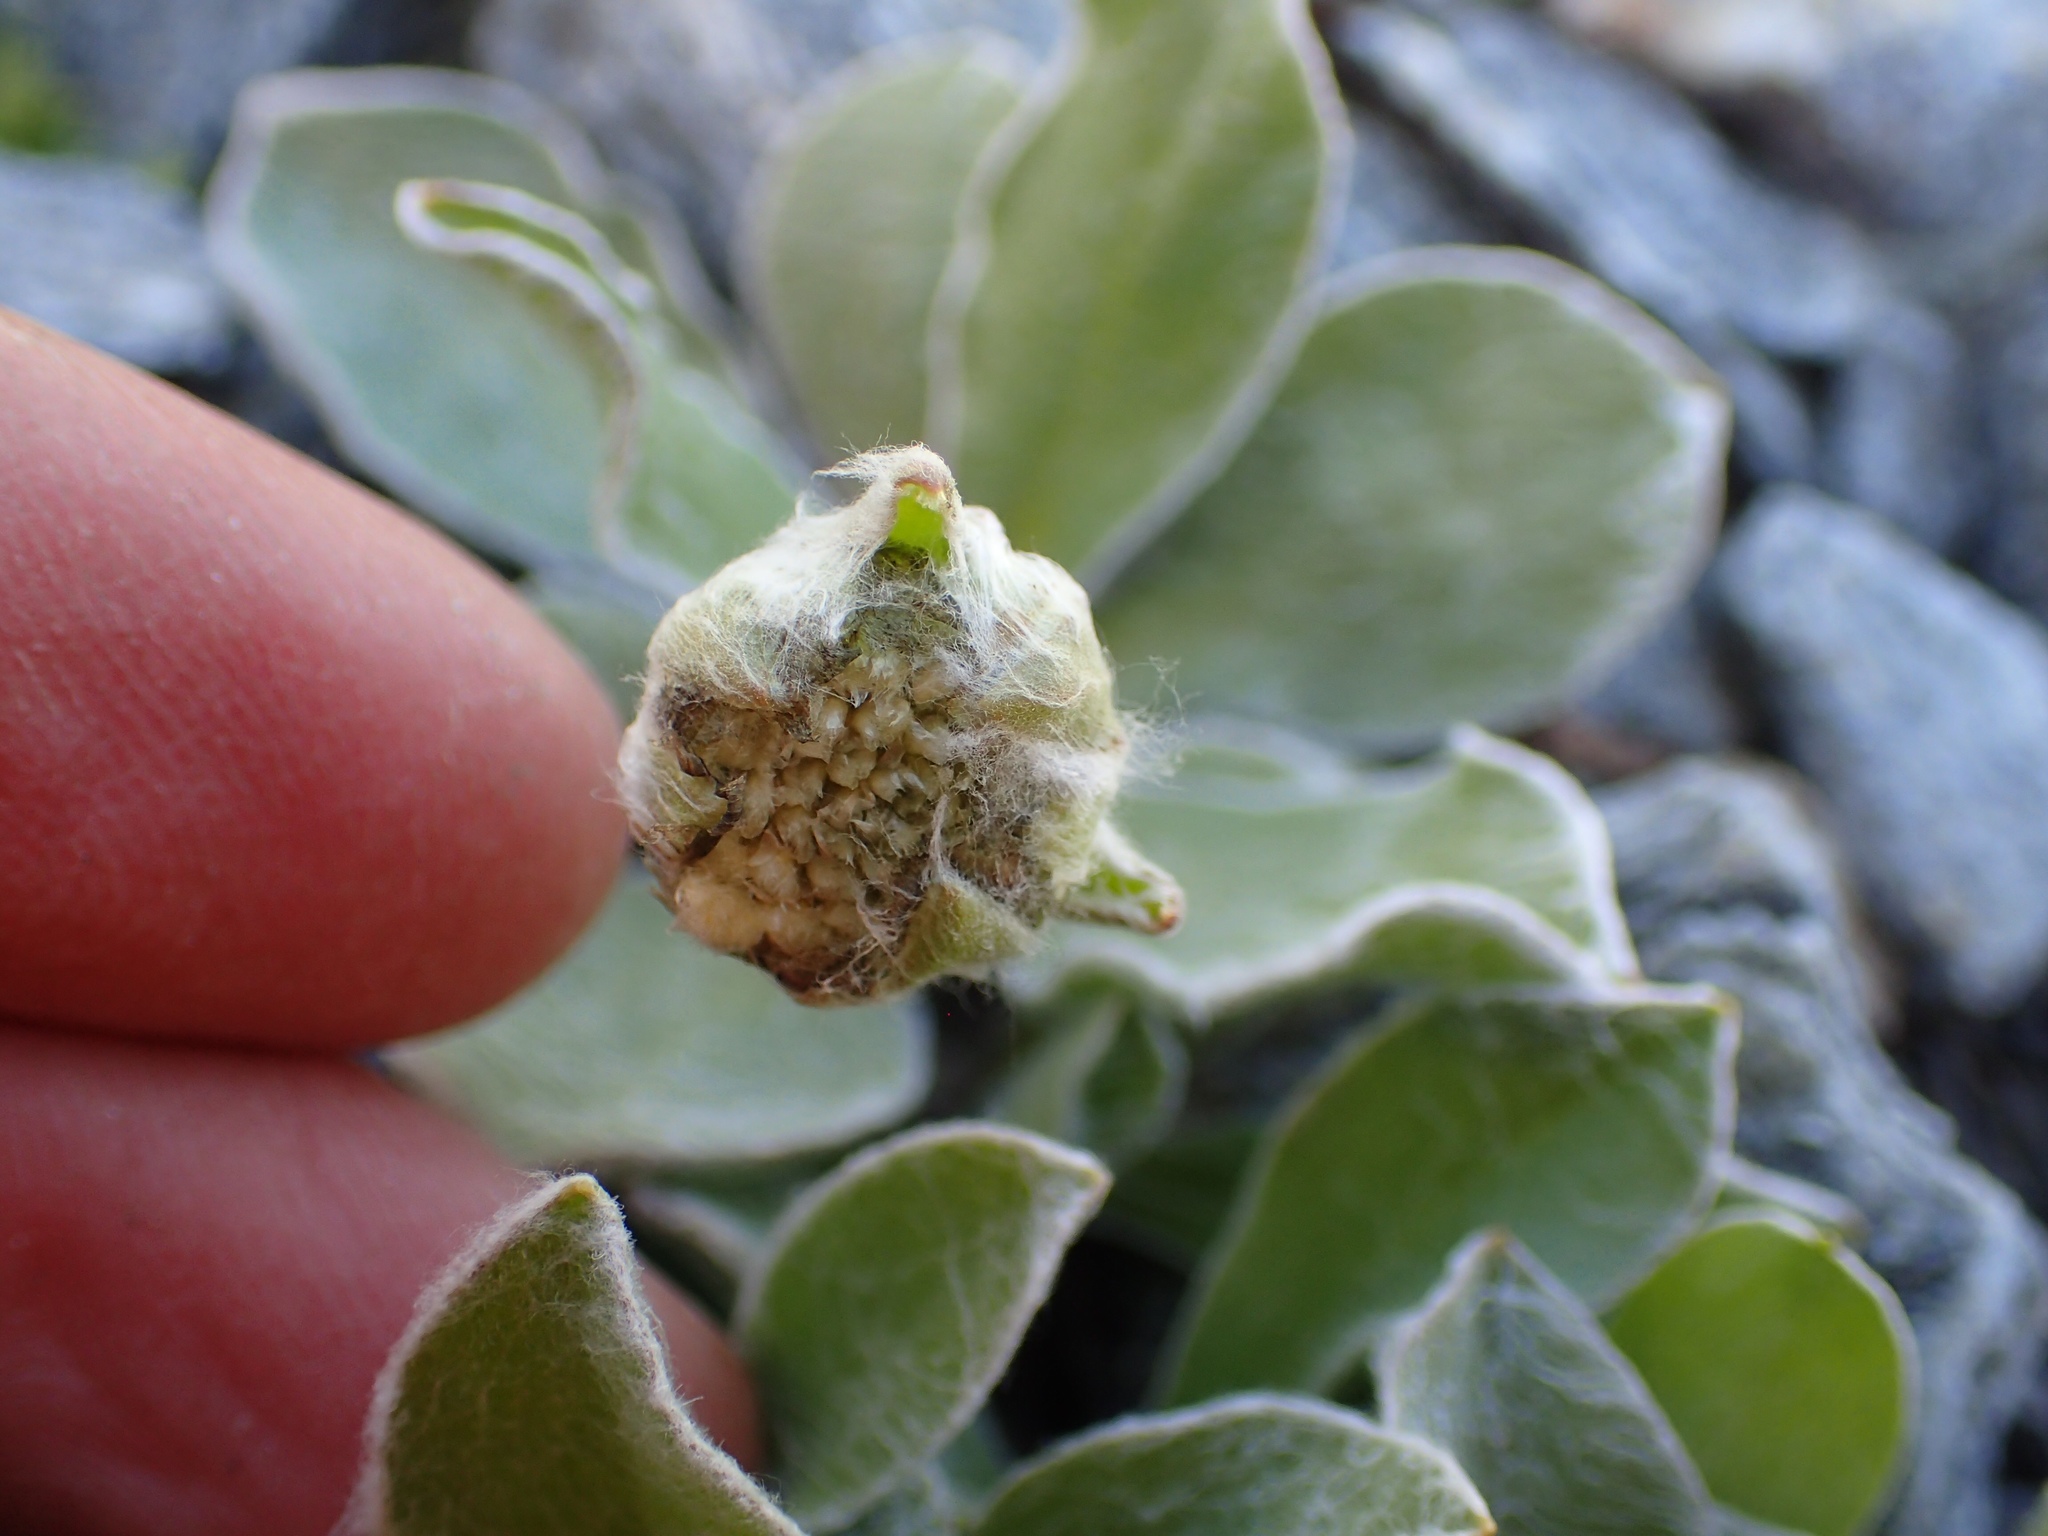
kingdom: Plantae
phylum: Tracheophyta
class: Magnoliopsida
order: Asterales
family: Asteraceae
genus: Craspedia
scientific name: Craspedia lanata
